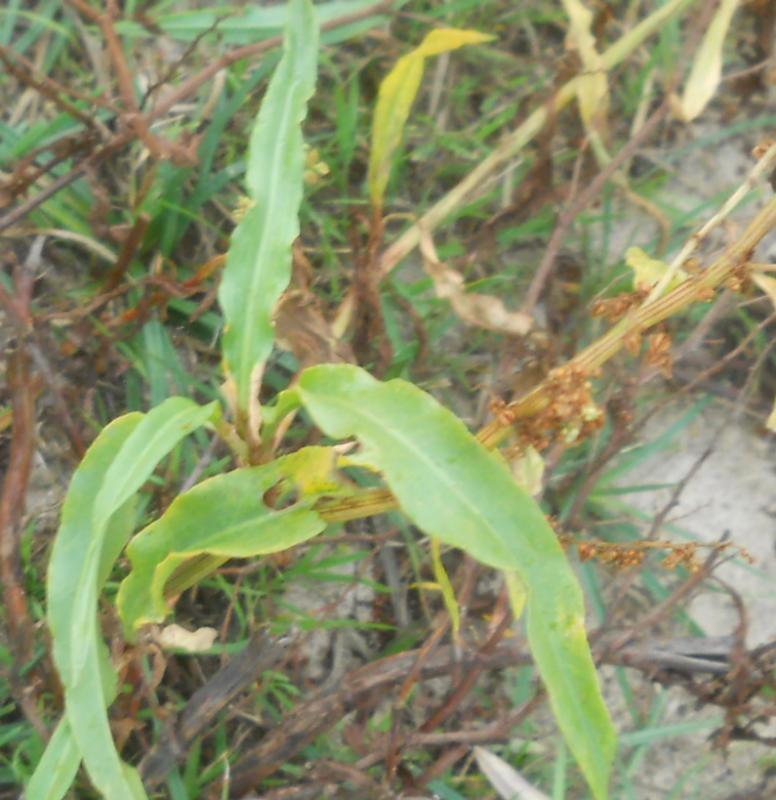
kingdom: Plantae
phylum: Tracheophyta
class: Magnoliopsida
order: Caryophyllales
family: Polygonaceae
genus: Rumex
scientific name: Rumex salicifolius
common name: Willow-leaved dock
